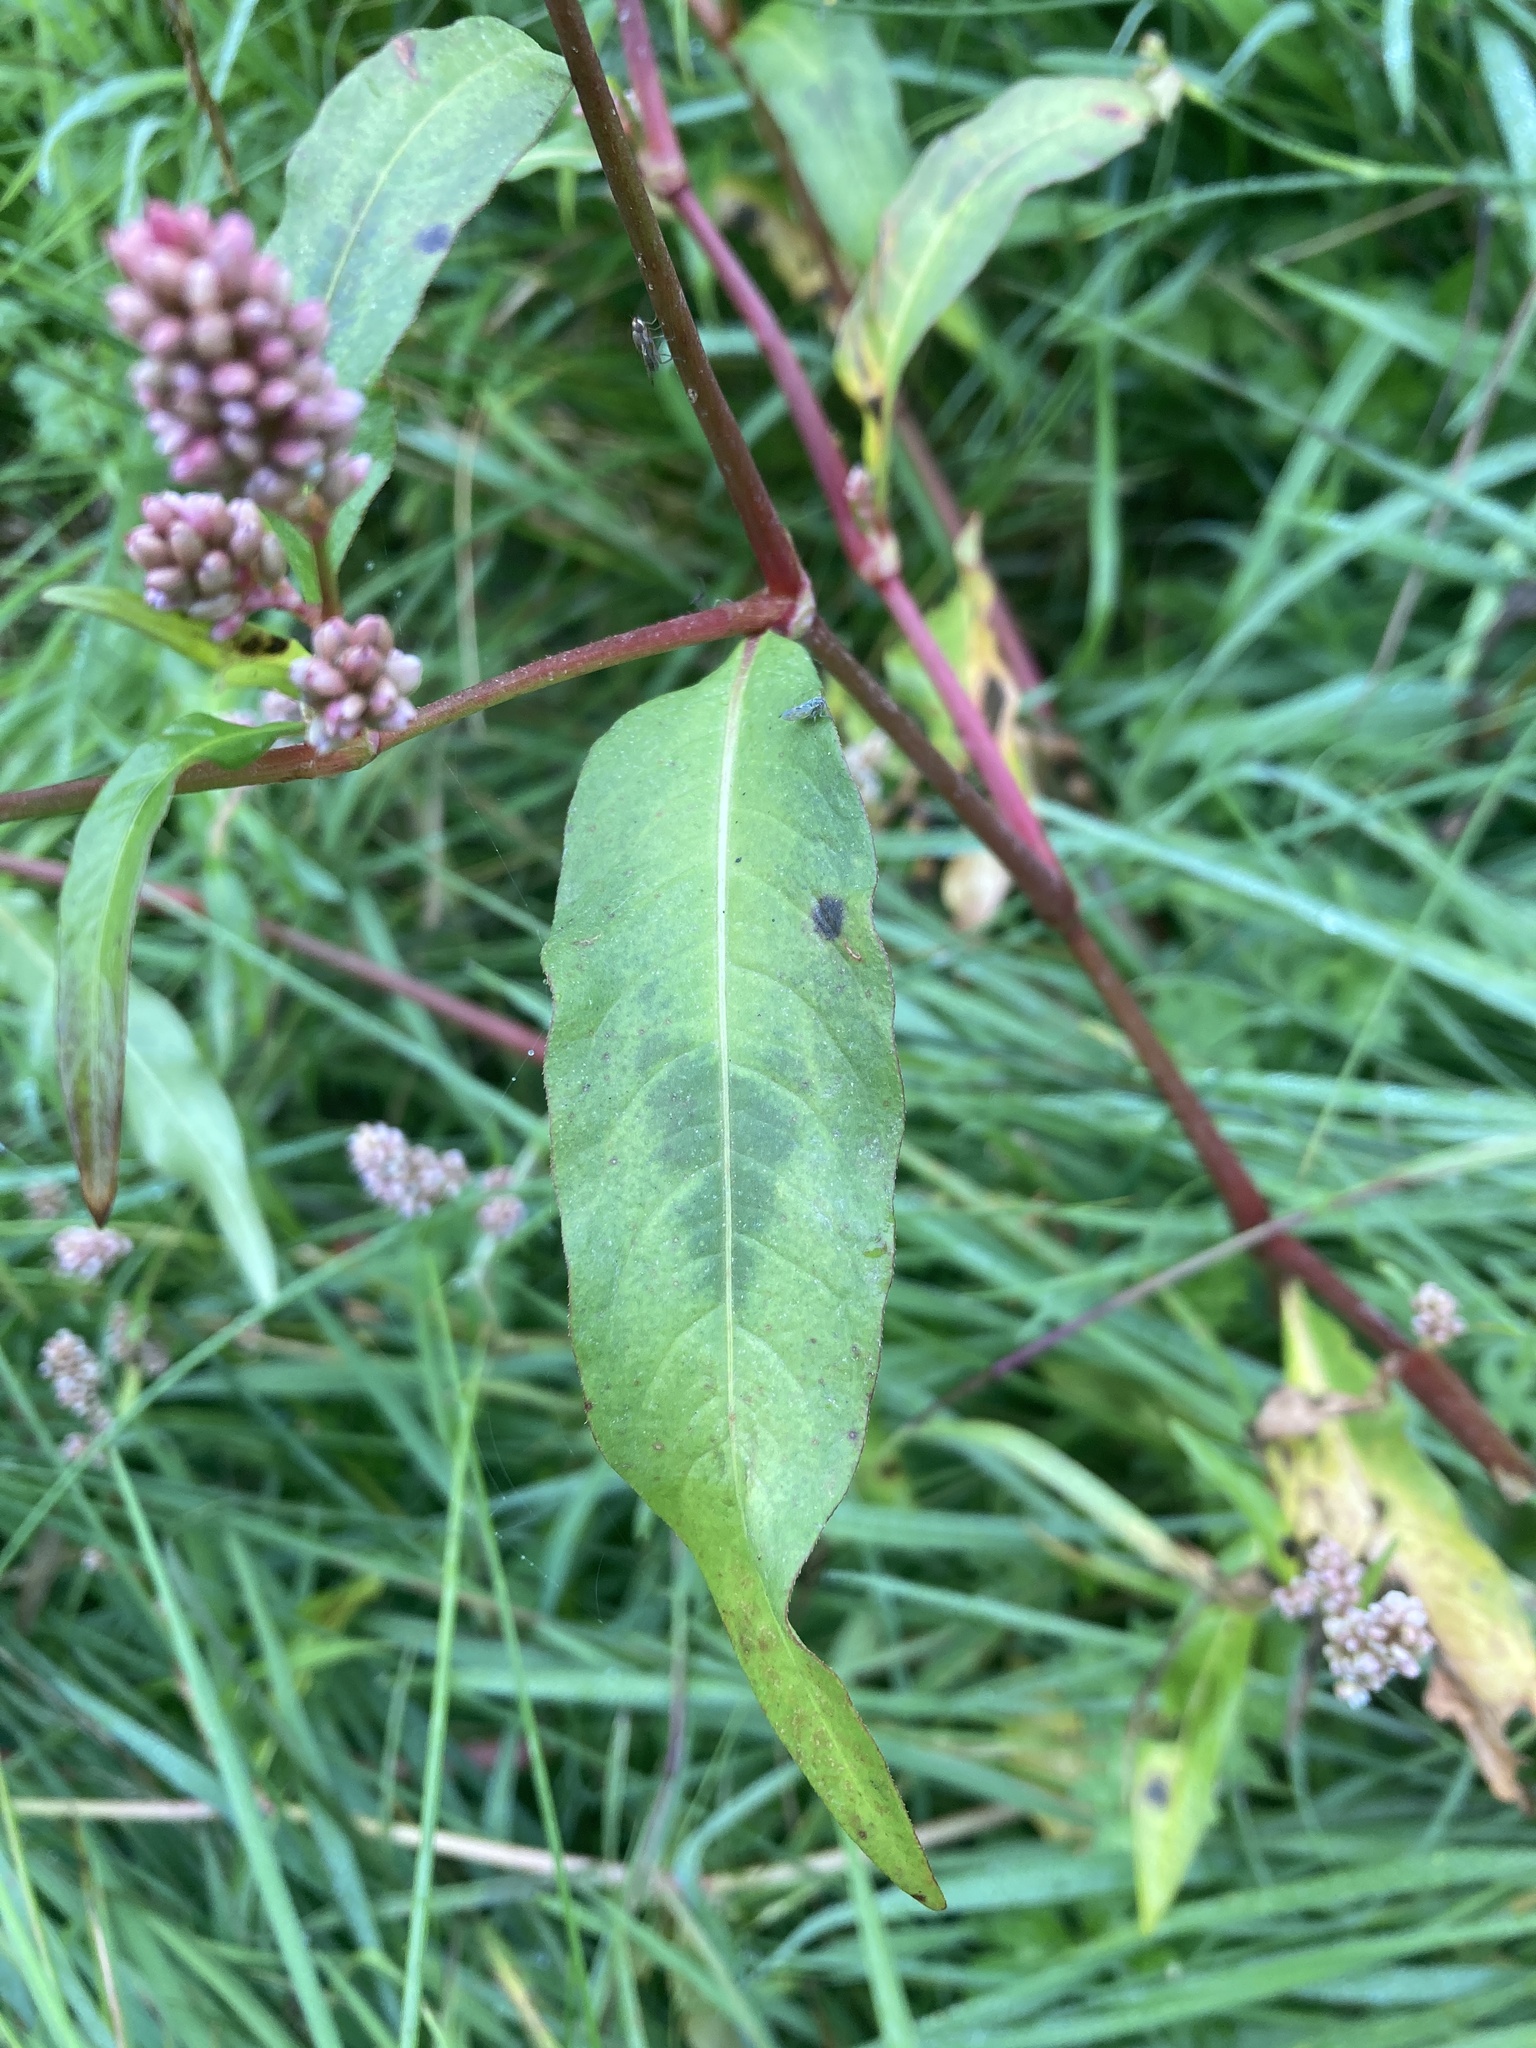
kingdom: Plantae
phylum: Tracheophyta
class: Magnoliopsida
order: Caryophyllales
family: Polygonaceae
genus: Persicaria
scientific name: Persicaria maculosa
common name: Redshank
